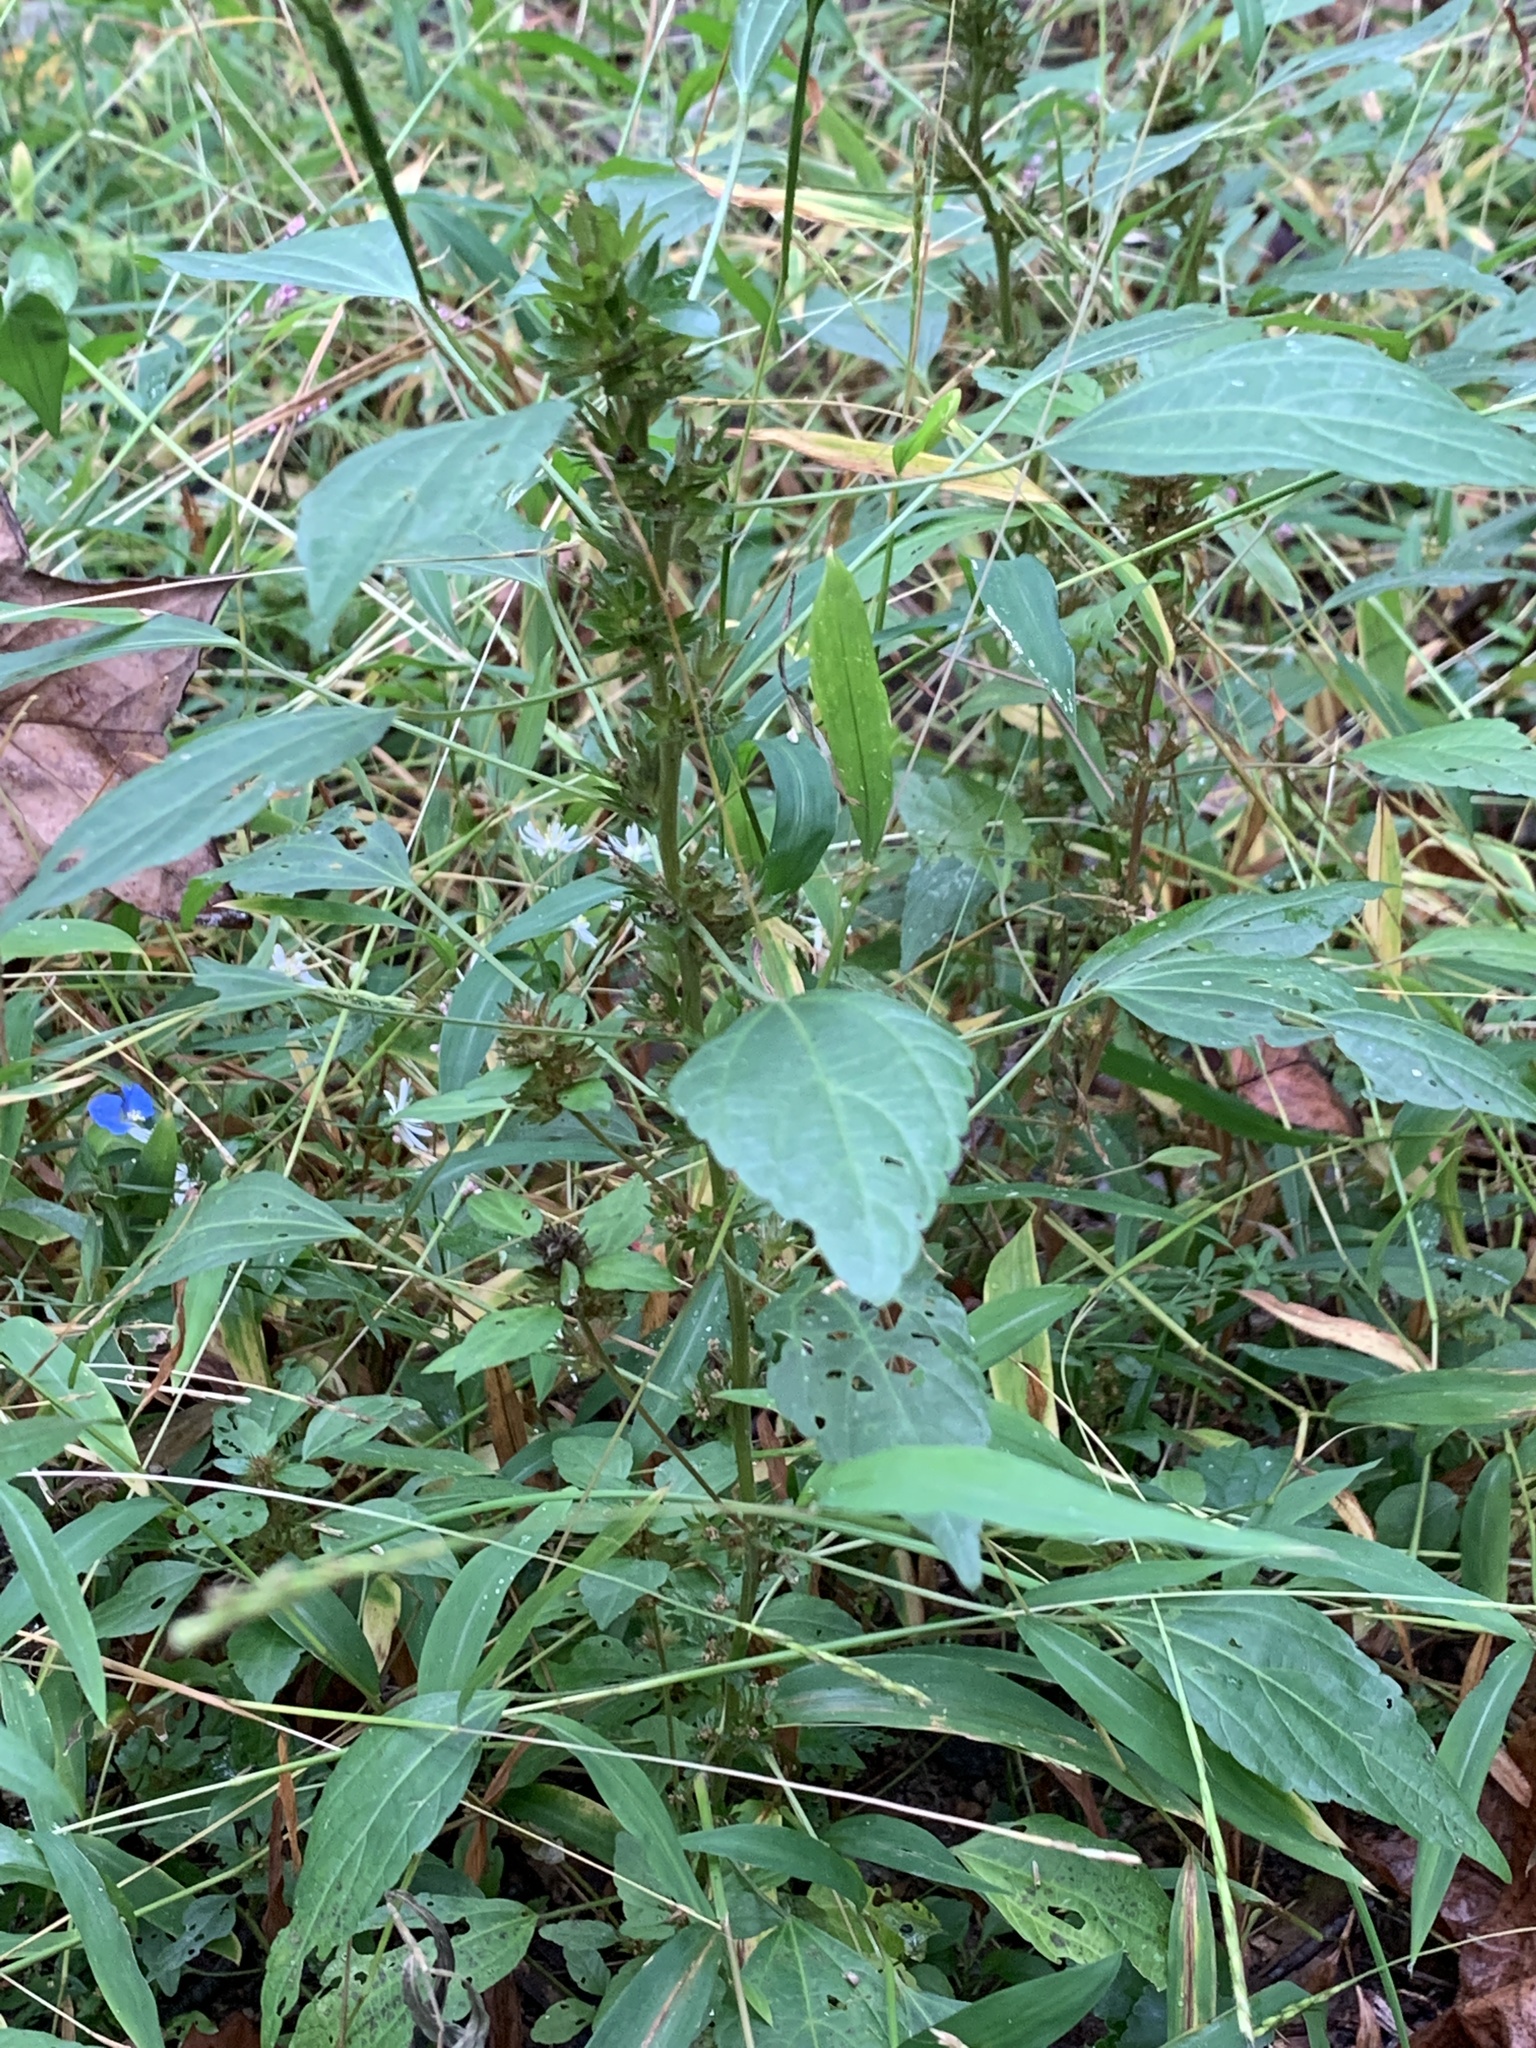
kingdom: Plantae
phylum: Tracheophyta
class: Magnoliopsida
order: Malpighiales
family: Euphorbiaceae
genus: Acalypha
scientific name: Acalypha rhomboidea
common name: Rhombic copperleaf
